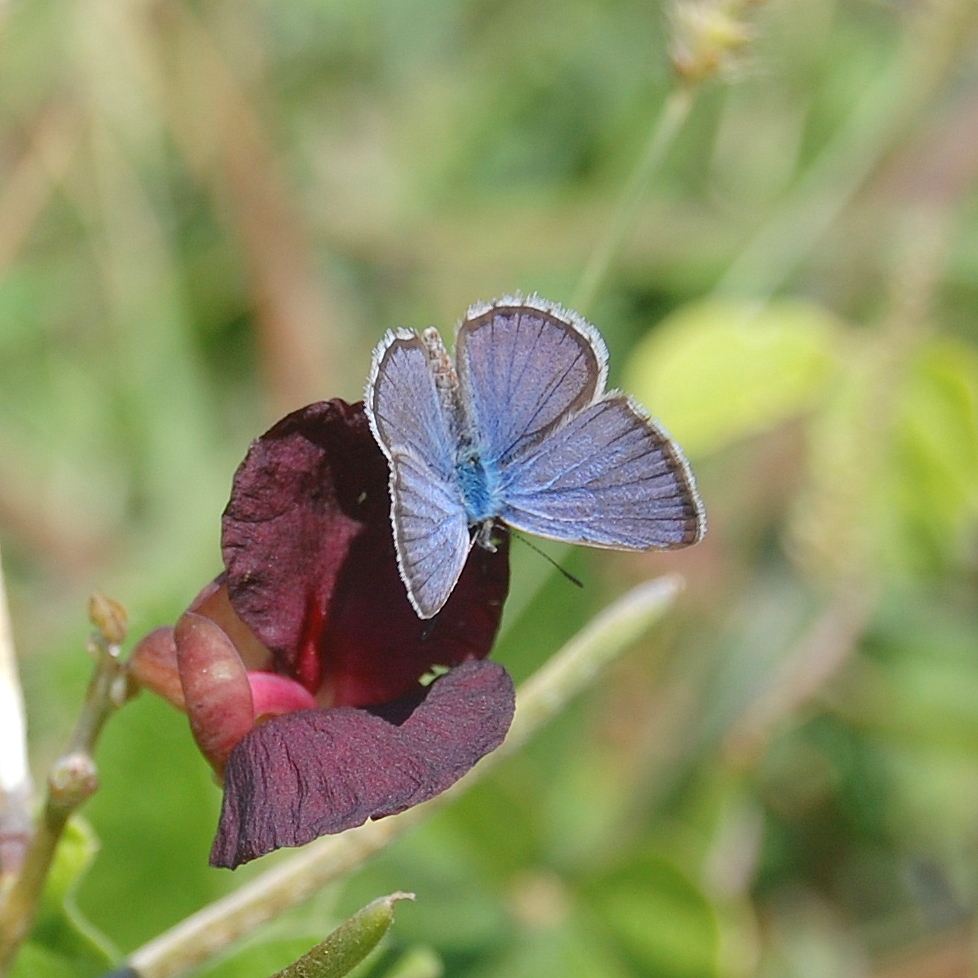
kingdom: Animalia
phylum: Arthropoda
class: Insecta
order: Lepidoptera
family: Lycaenidae
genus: Hemiargus
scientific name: Hemiargus hanno
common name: Common blue
